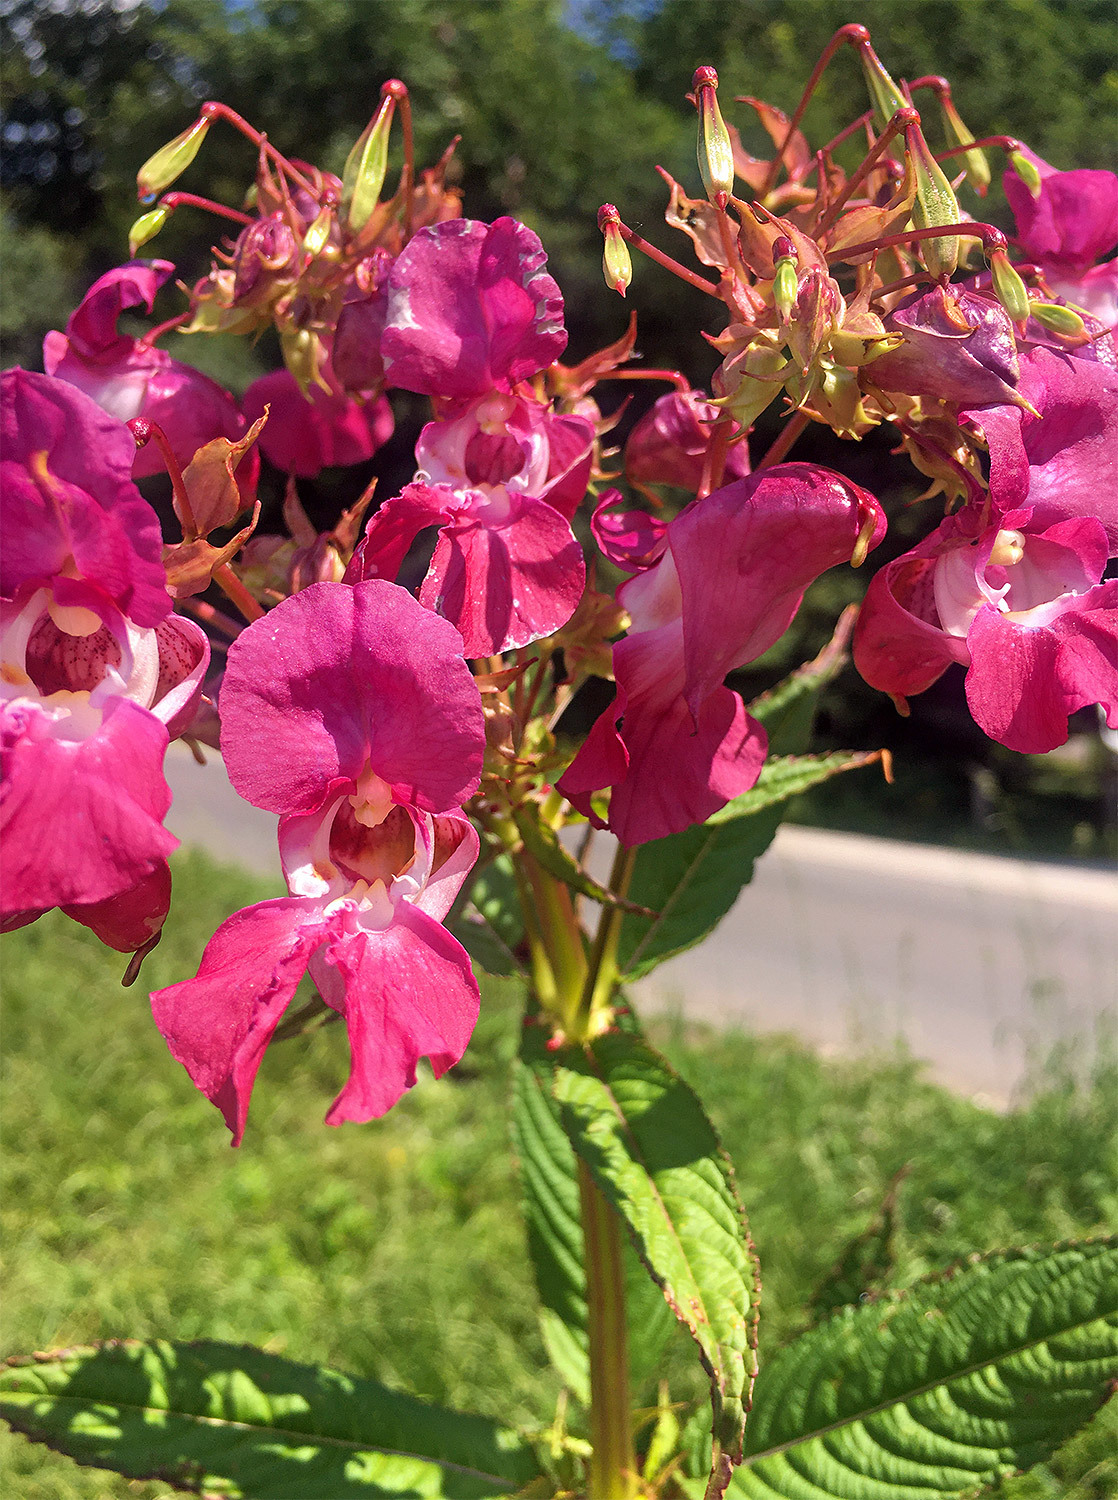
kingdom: Plantae
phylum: Tracheophyta
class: Magnoliopsida
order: Ericales
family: Balsaminaceae
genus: Impatiens
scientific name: Impatiens glandulifera
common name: Himalayan balsam
